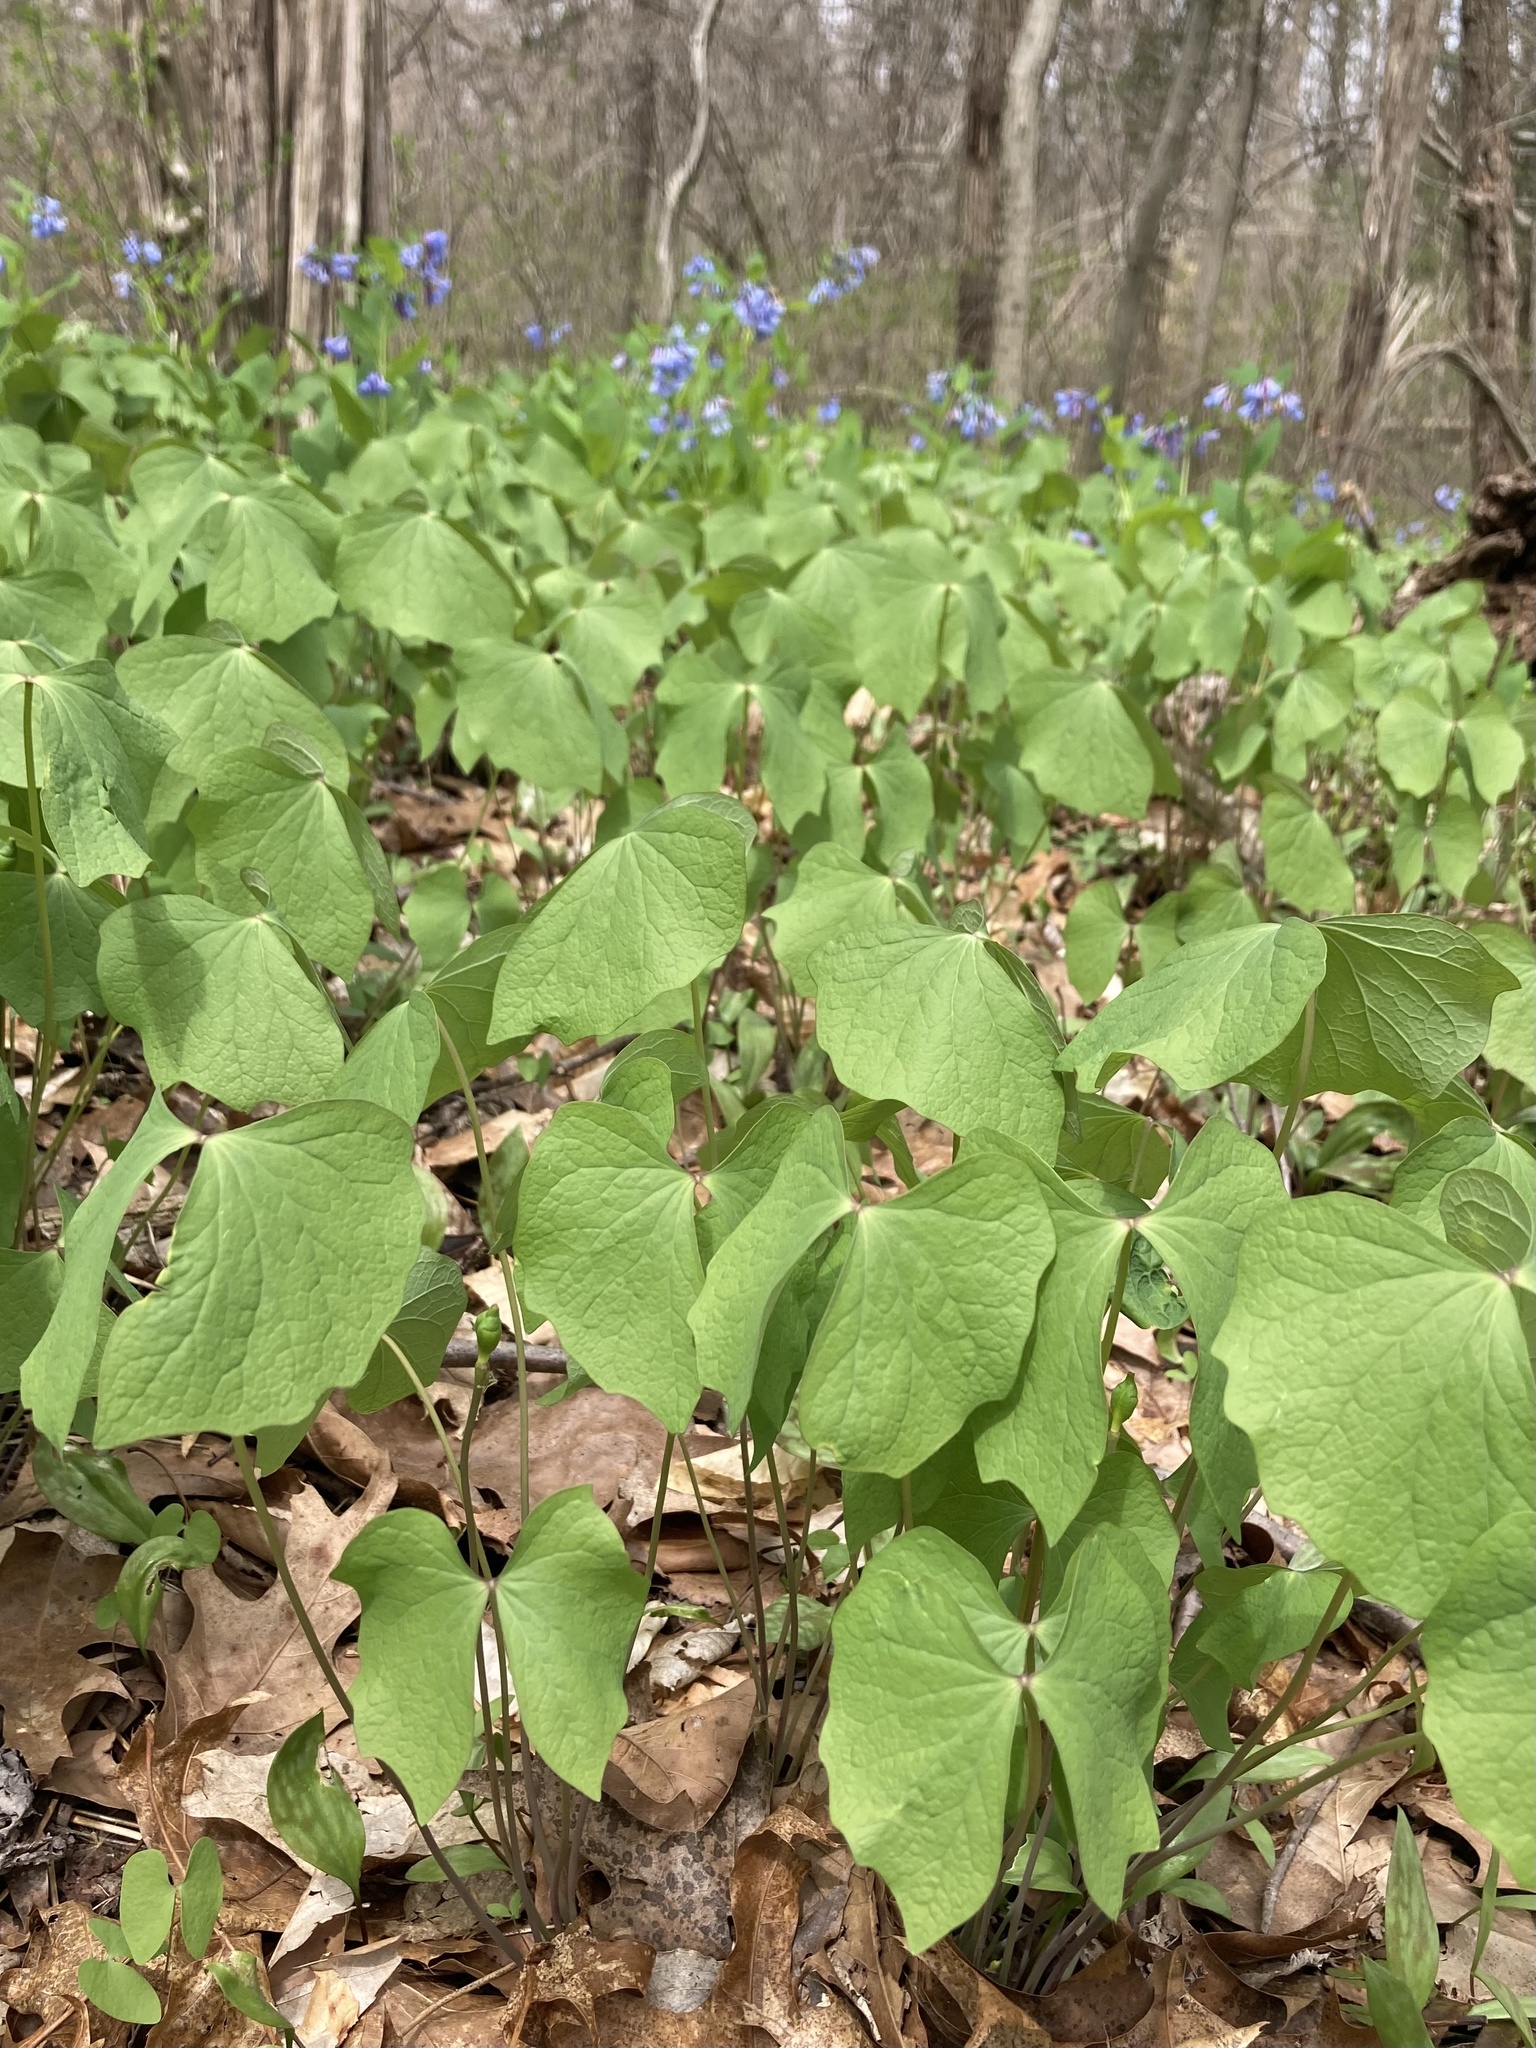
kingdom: Plantae
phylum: Tracheophyta
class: Magnoliopsida
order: Ranunculales
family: Berberidaceae
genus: Jeffersonia
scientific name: Jeffersonia diphylla
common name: Rheumatism-root
